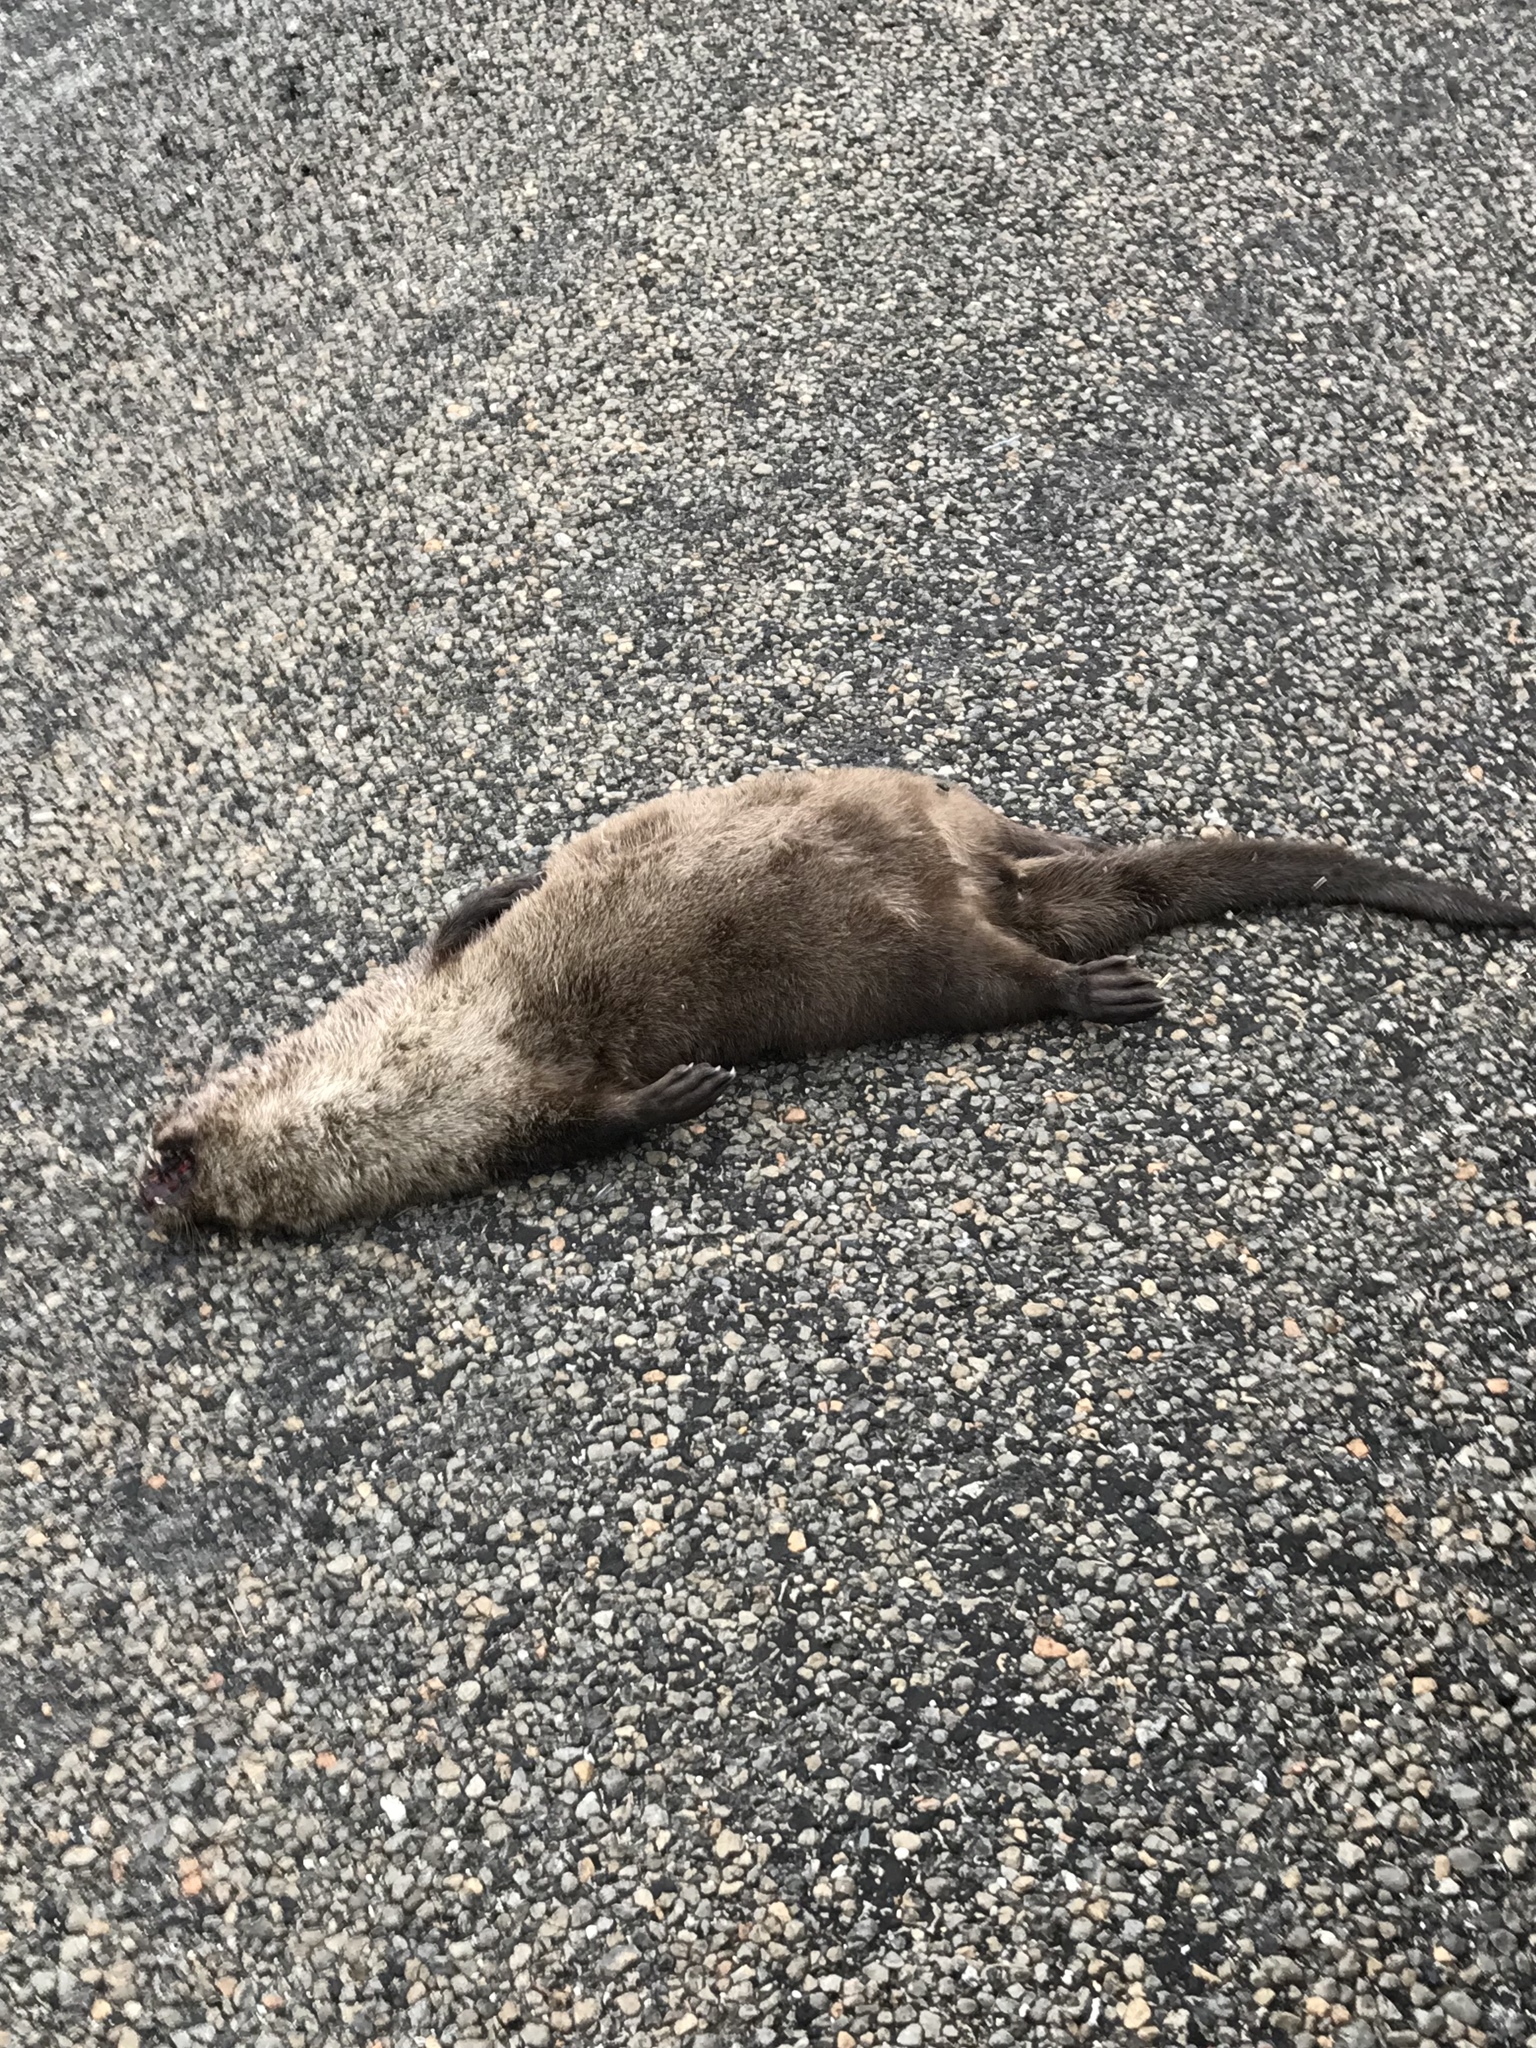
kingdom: Animalia
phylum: Chordata
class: Mammalia
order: Carnivora
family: Mustelidae
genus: Lontra
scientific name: Lontra canadensis
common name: North american river otter
